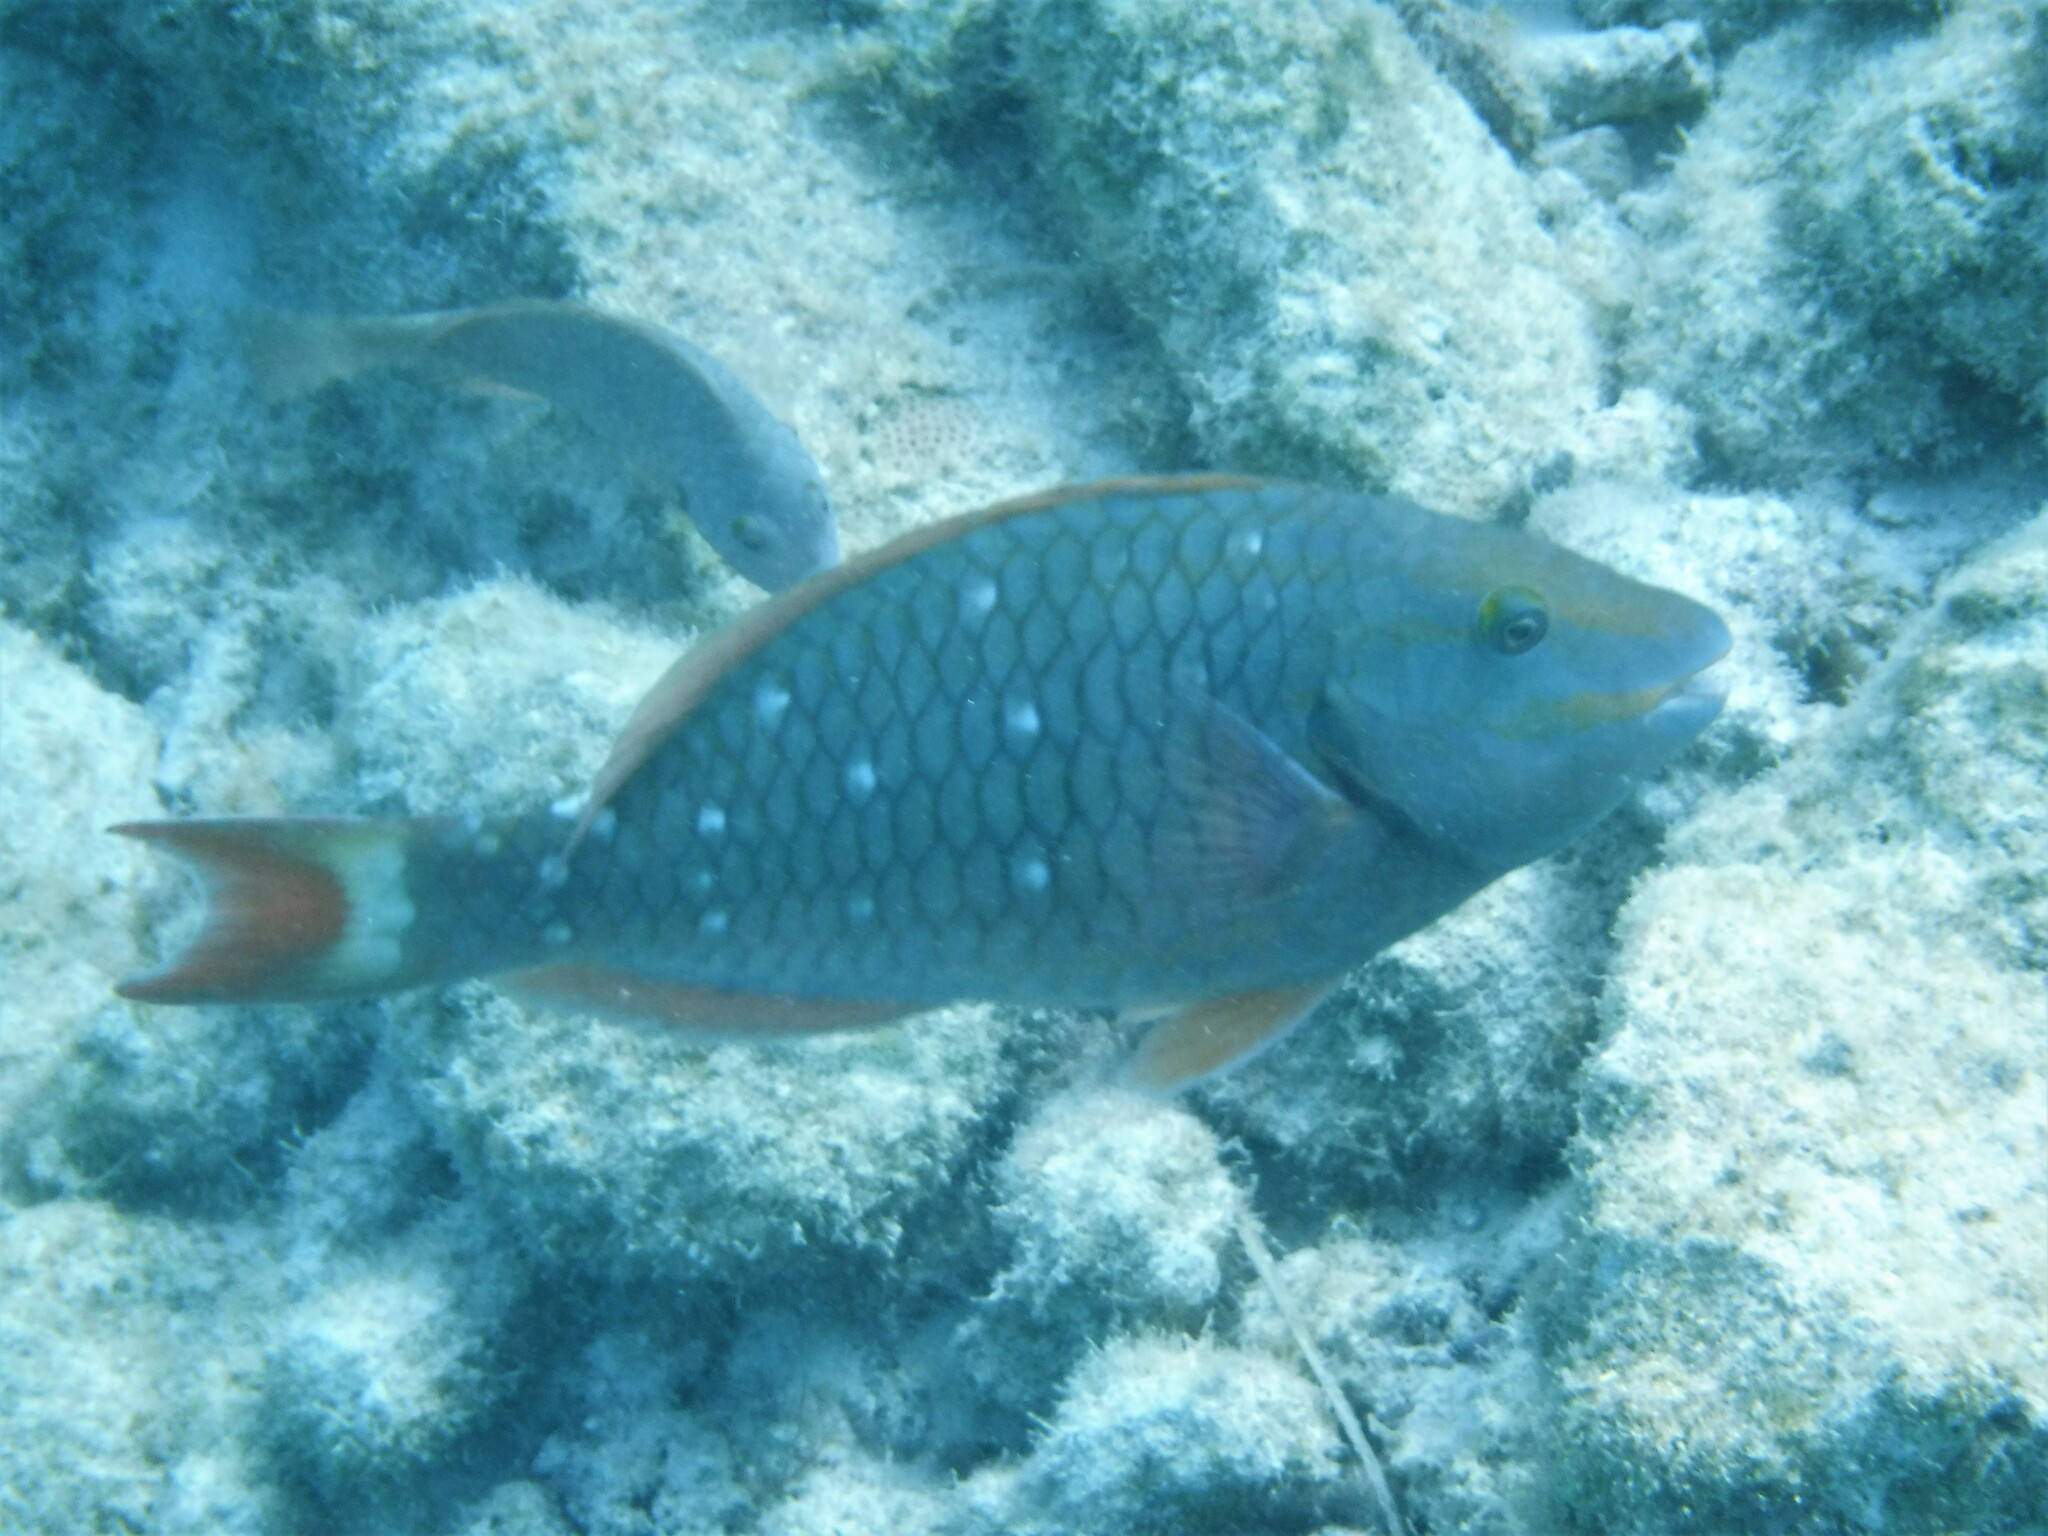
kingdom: Animalia
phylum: Chordata
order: Perciformes
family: Scaridae
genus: Sparisoma
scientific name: Sparisoma viride
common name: Stoplight parrotfish
